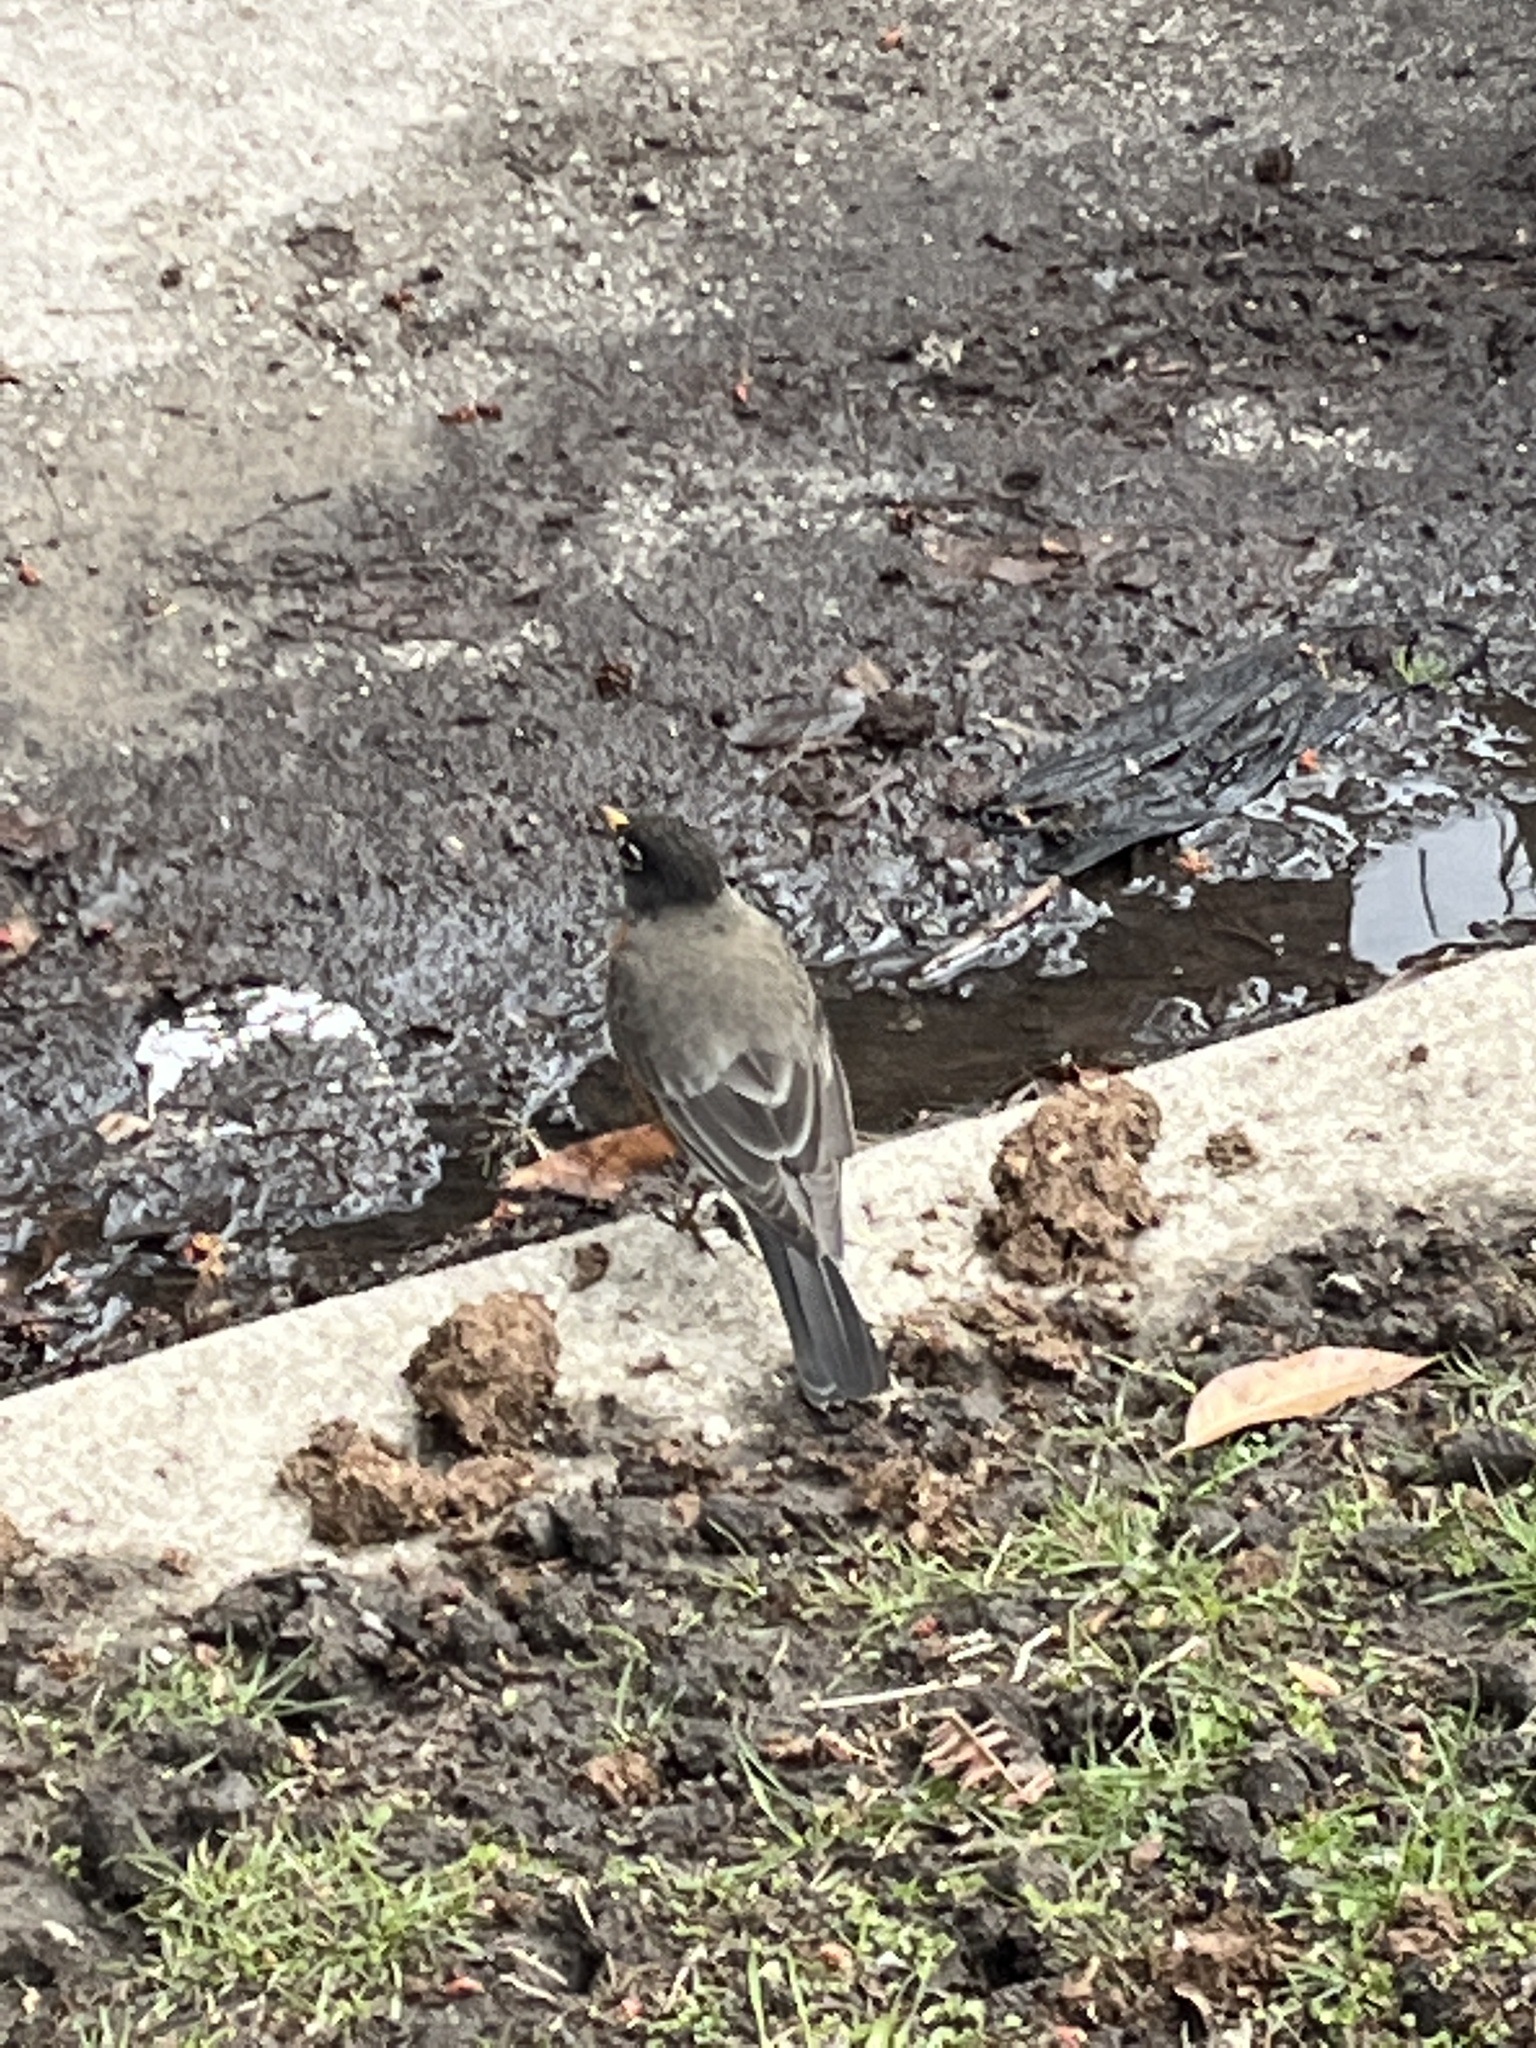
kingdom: Animalia
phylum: Chordata
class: Aves
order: Passeriformes
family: Turdidae
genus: Turdus
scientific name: Turdus migratorius
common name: American robin
